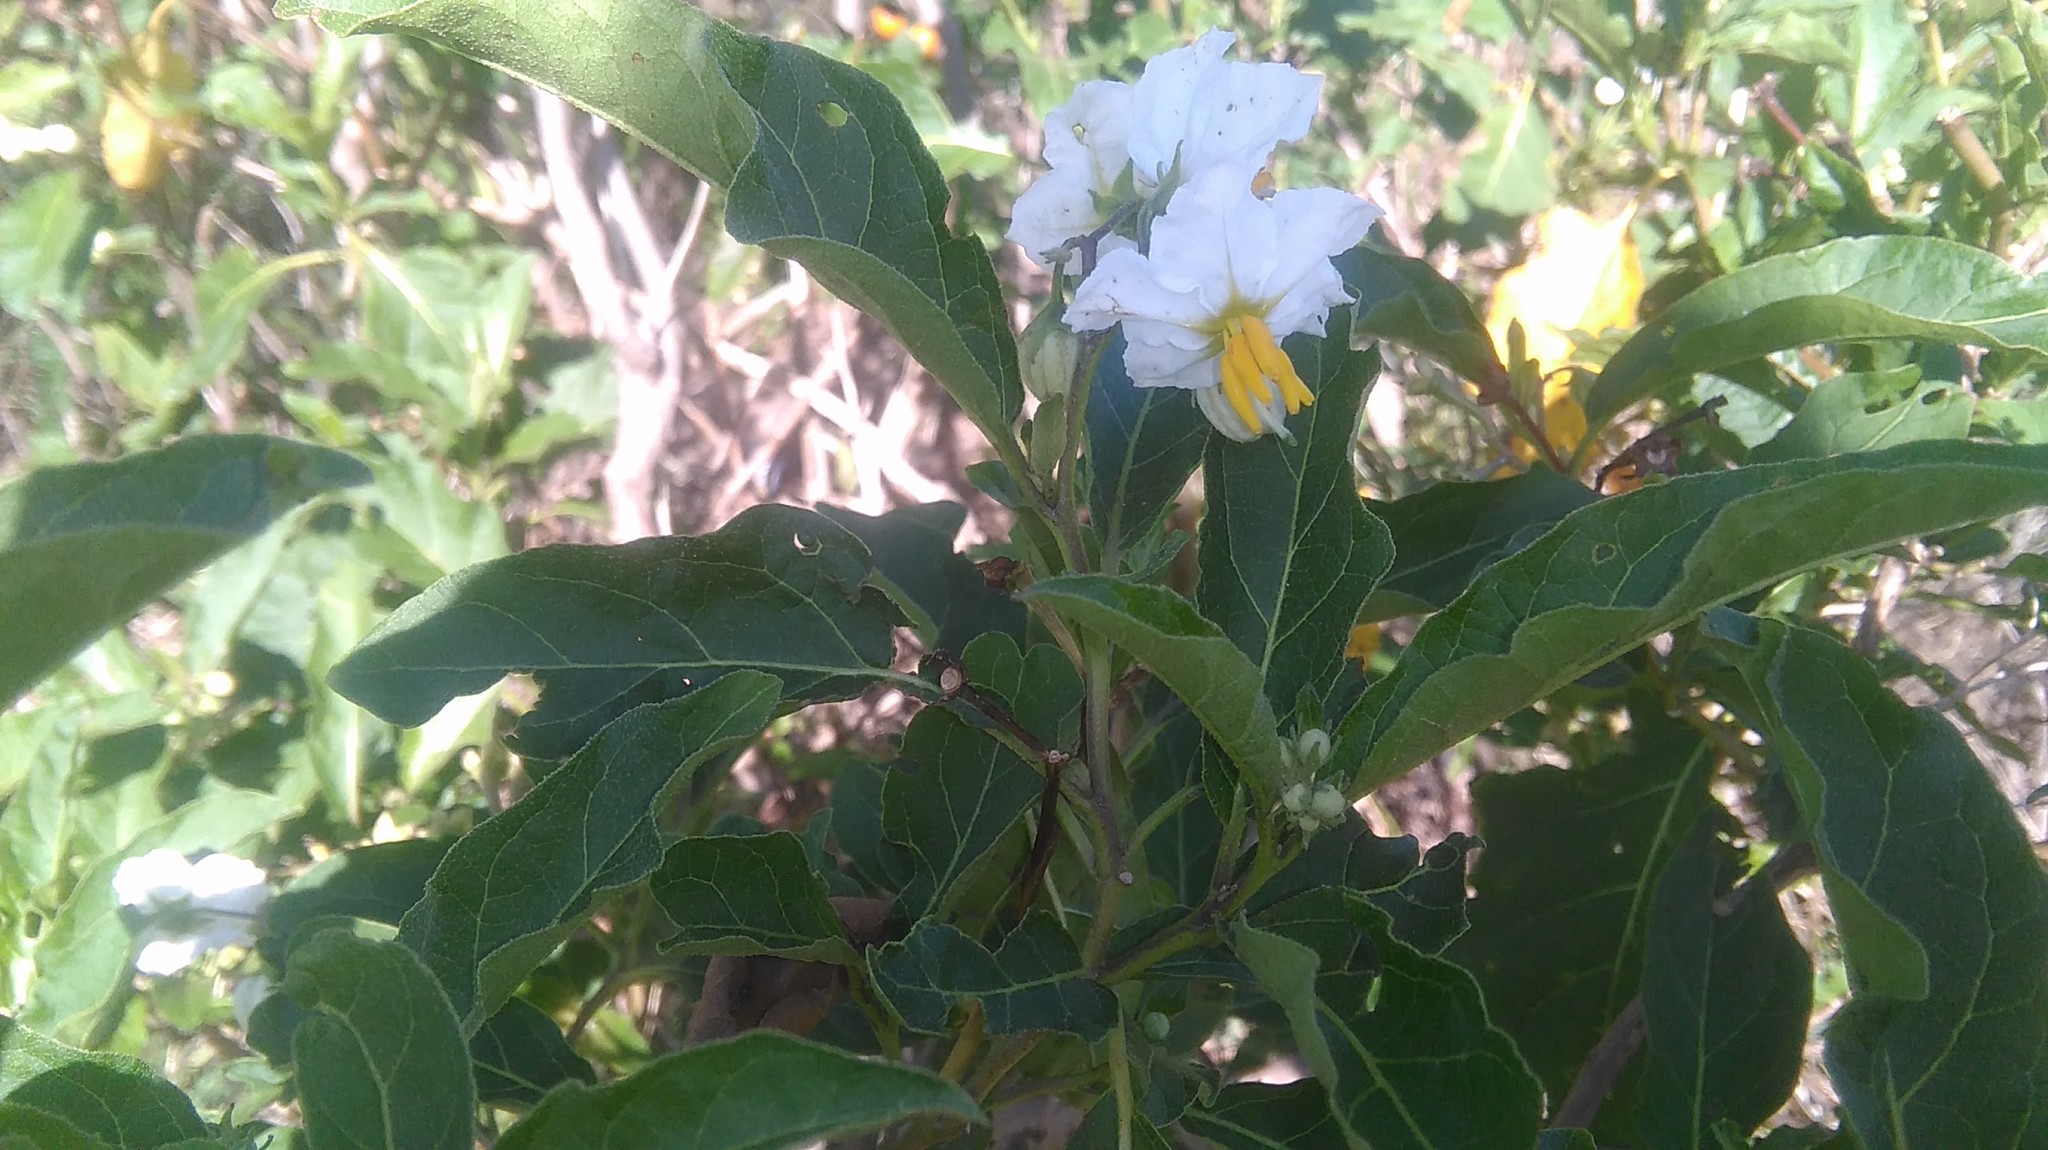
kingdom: Plantae
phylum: Tracheophyta
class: Magnoliopsida
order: Solanales
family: Solanaceae
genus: Solanum
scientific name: Solanum bonariense
